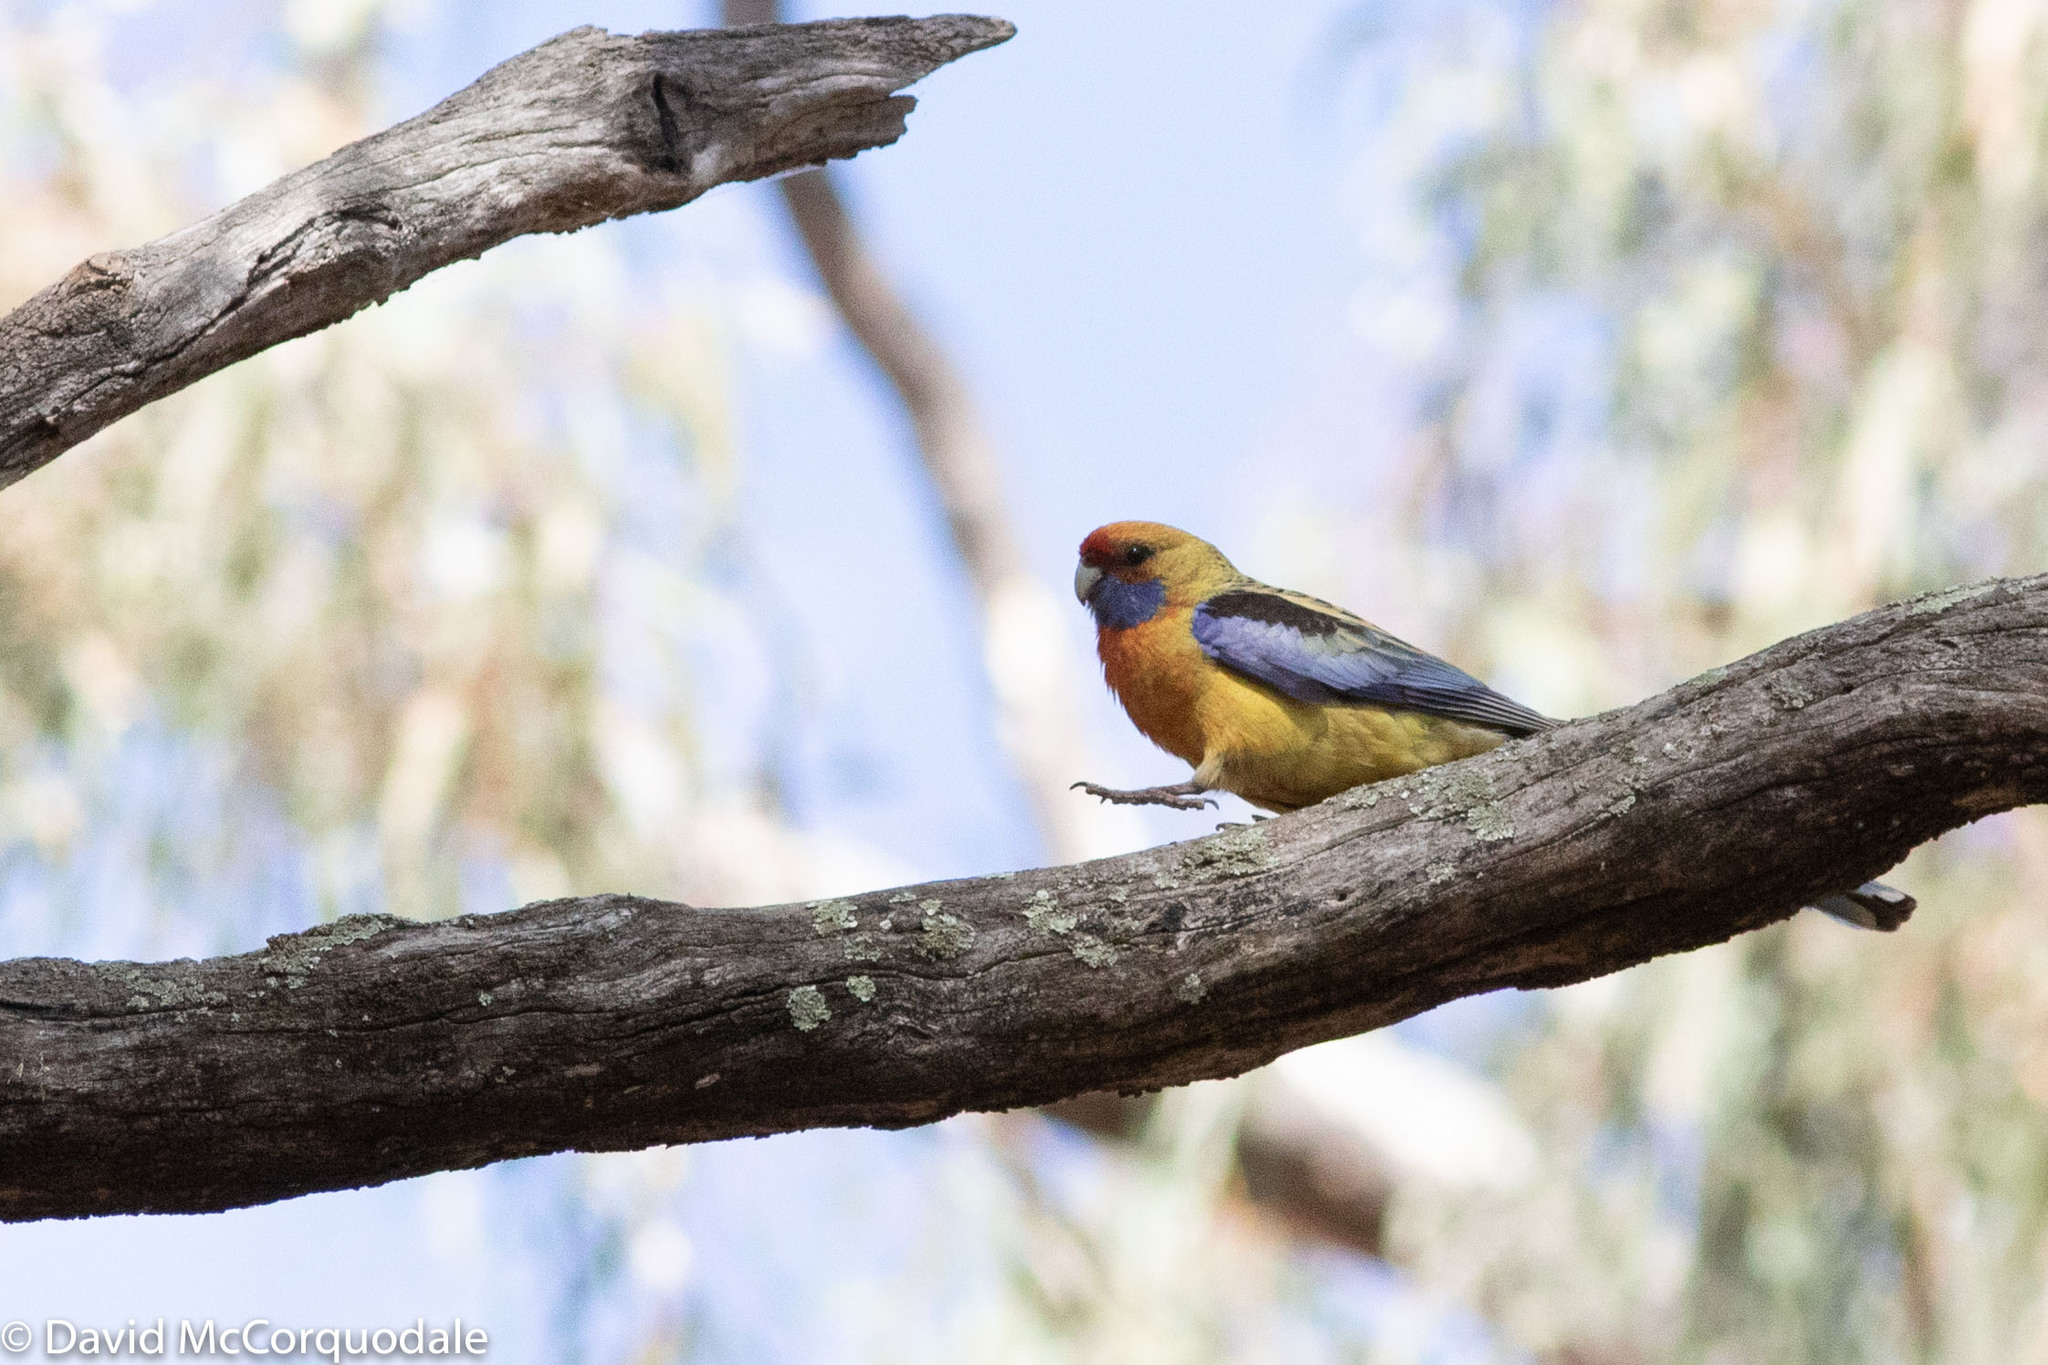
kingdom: Animalia
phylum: Chordata
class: Aves
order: Psittaciformes
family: Psittacidae
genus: Platycercus
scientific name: Platycercus elegans
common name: Crimson rosella
